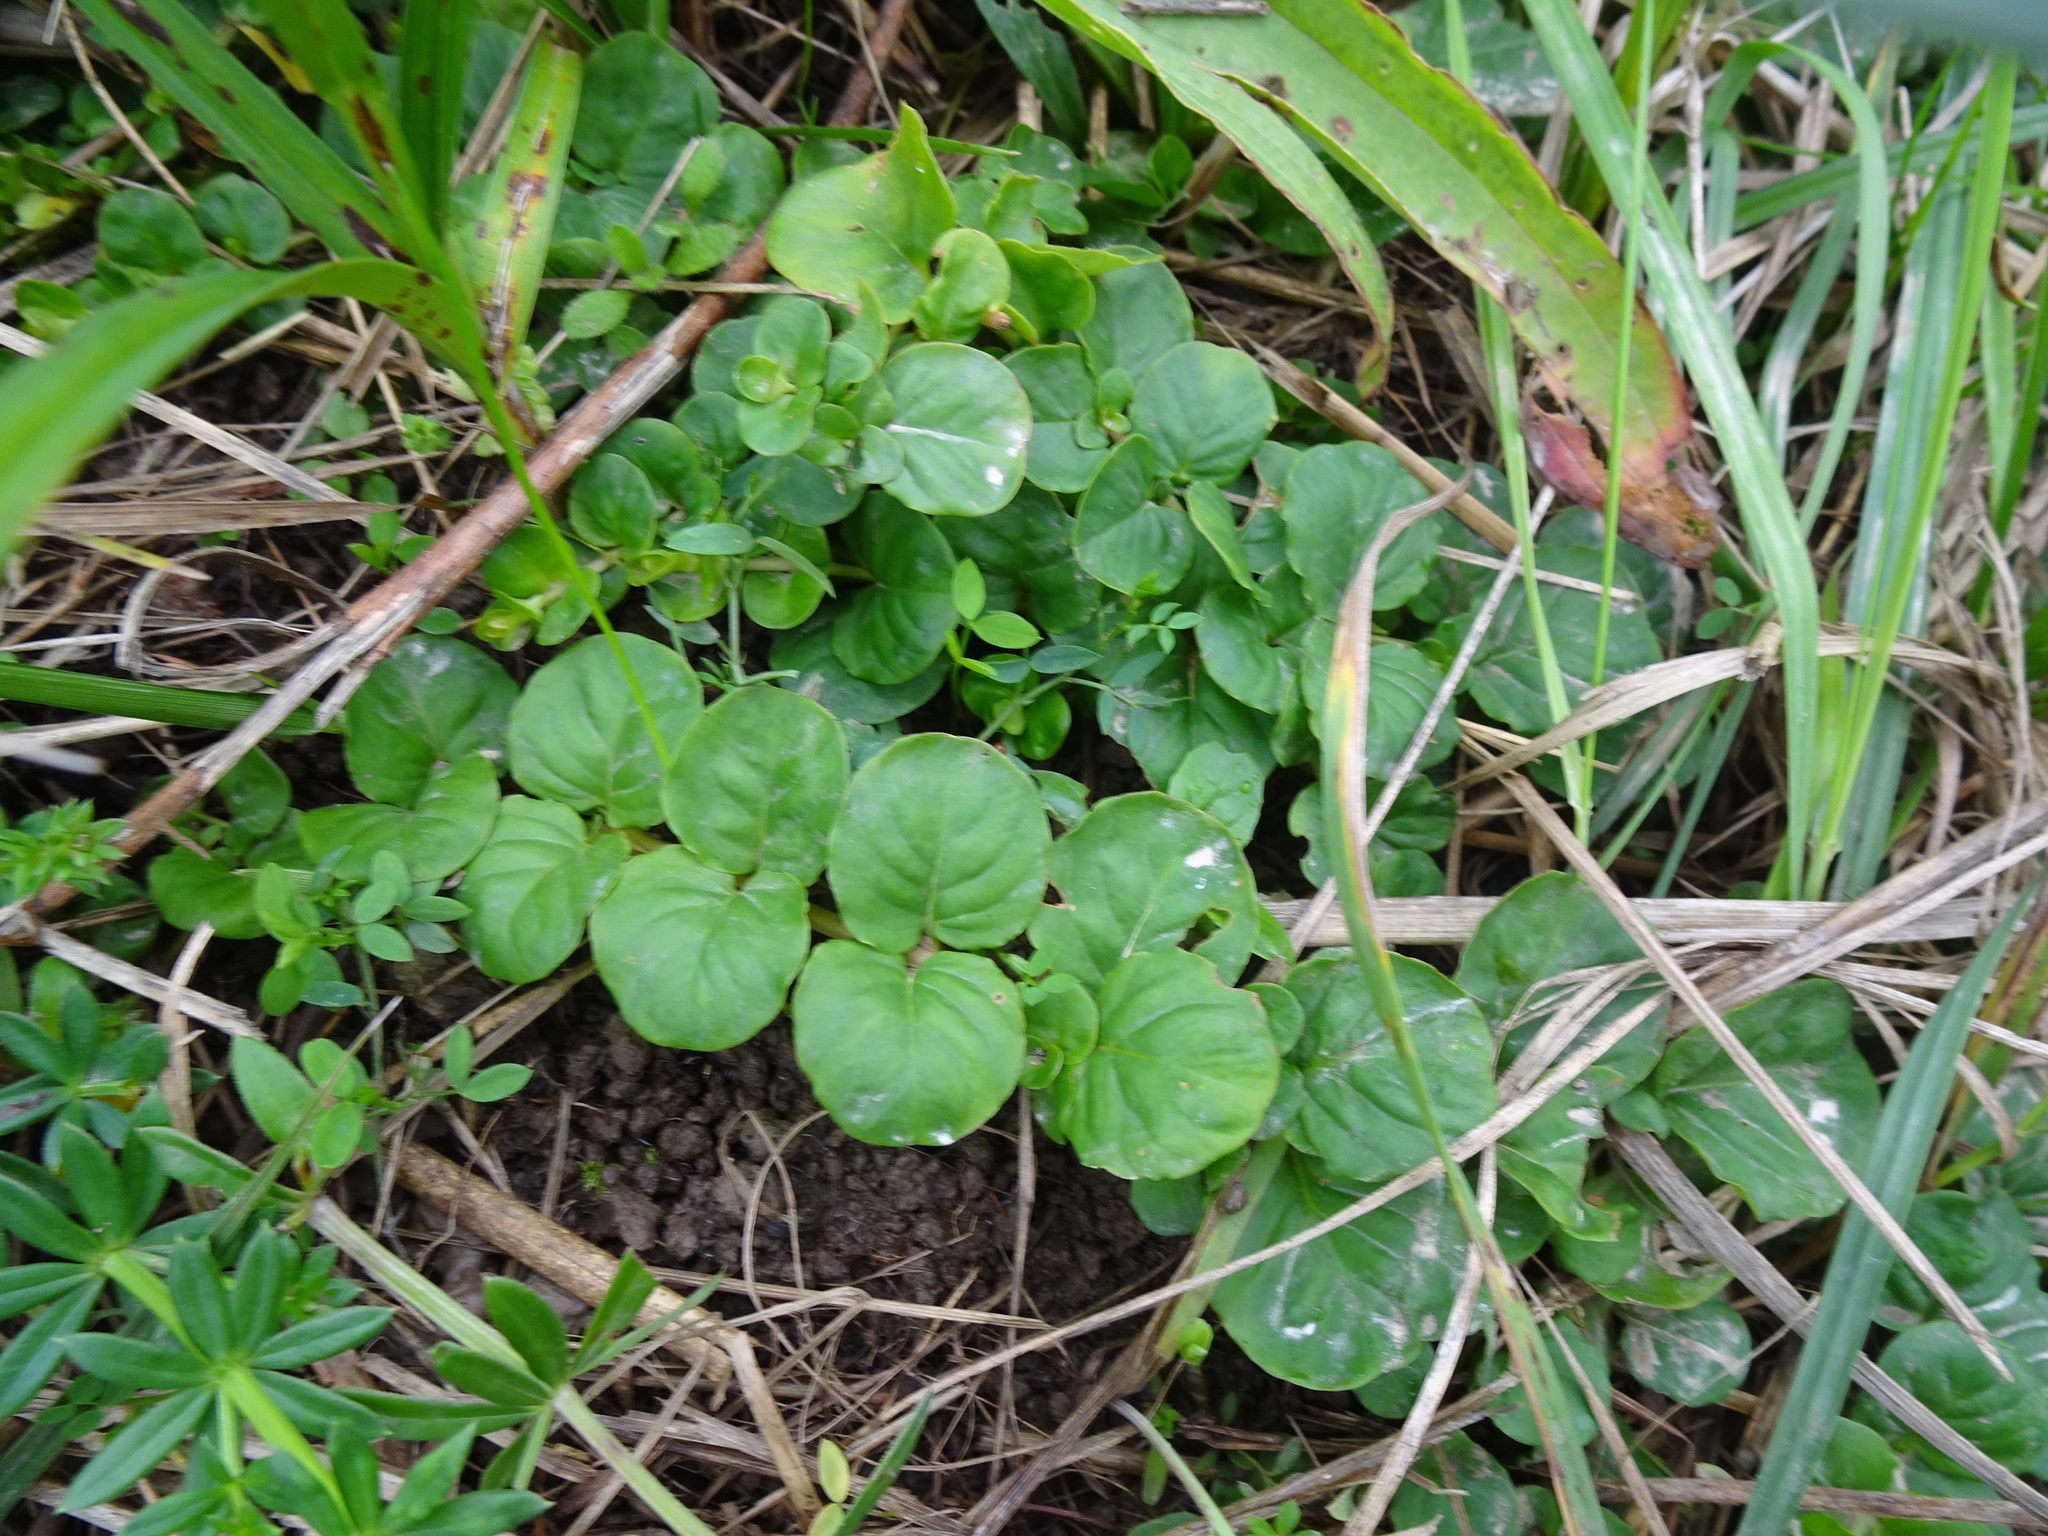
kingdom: Plantae
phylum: Tracheophyta
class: Magnoliopsida
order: Ericales
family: Primulaceae
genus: Lysimachia
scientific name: Lysimachia nummularia
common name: Moneywort
